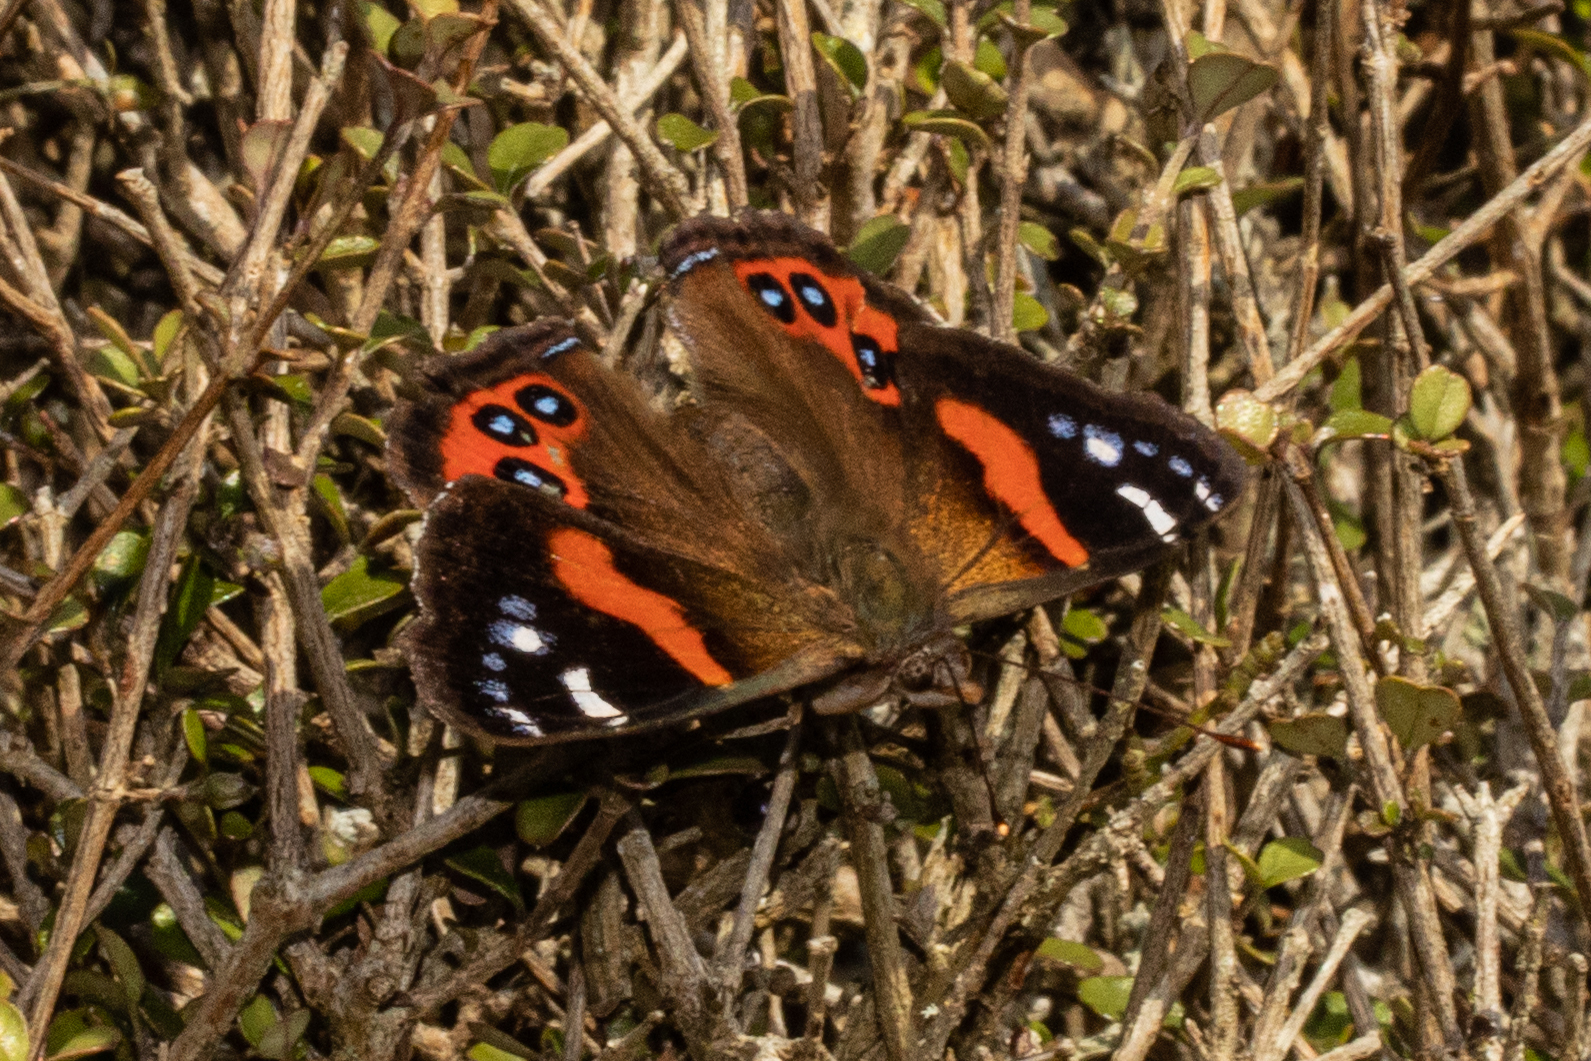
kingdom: Animalia
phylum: Arthropoda
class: Insecta
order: Lepidoptera
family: Nymphalidae
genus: Vanessa
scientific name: Vanessa gonerilla
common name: New zealand red admiral
